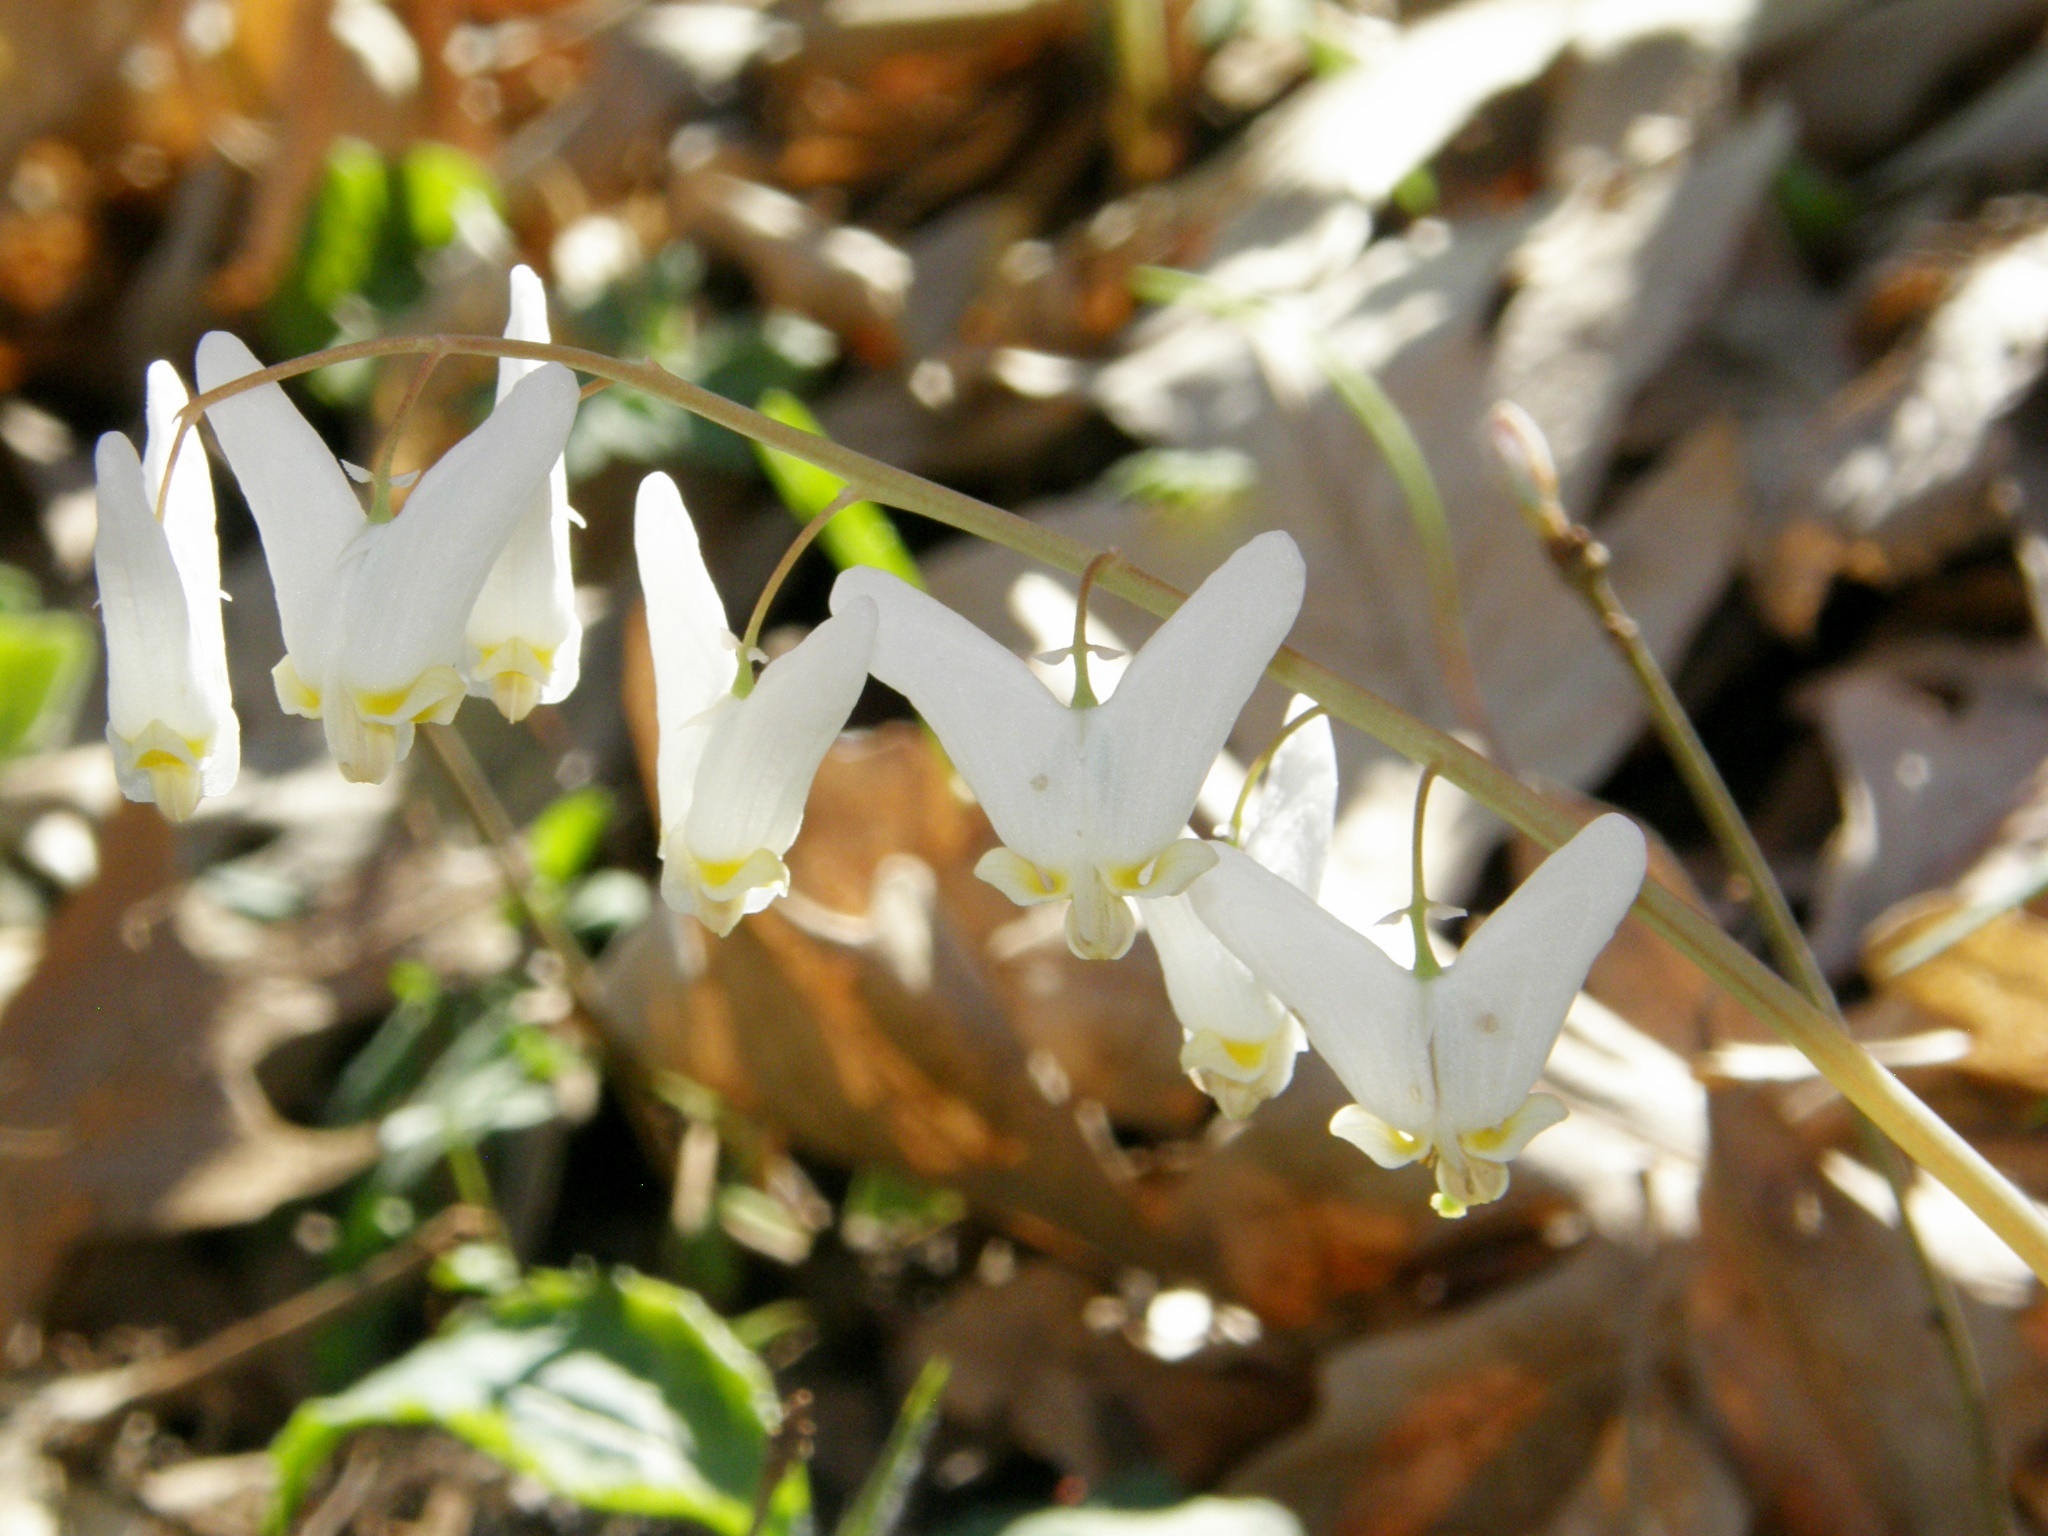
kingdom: Plantae
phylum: Tracheophyta
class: Magnoliopsida
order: Ranunculales
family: Papaveraceae
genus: Dicentra
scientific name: Dicentra cucullaria
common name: Dutchman's breeches
